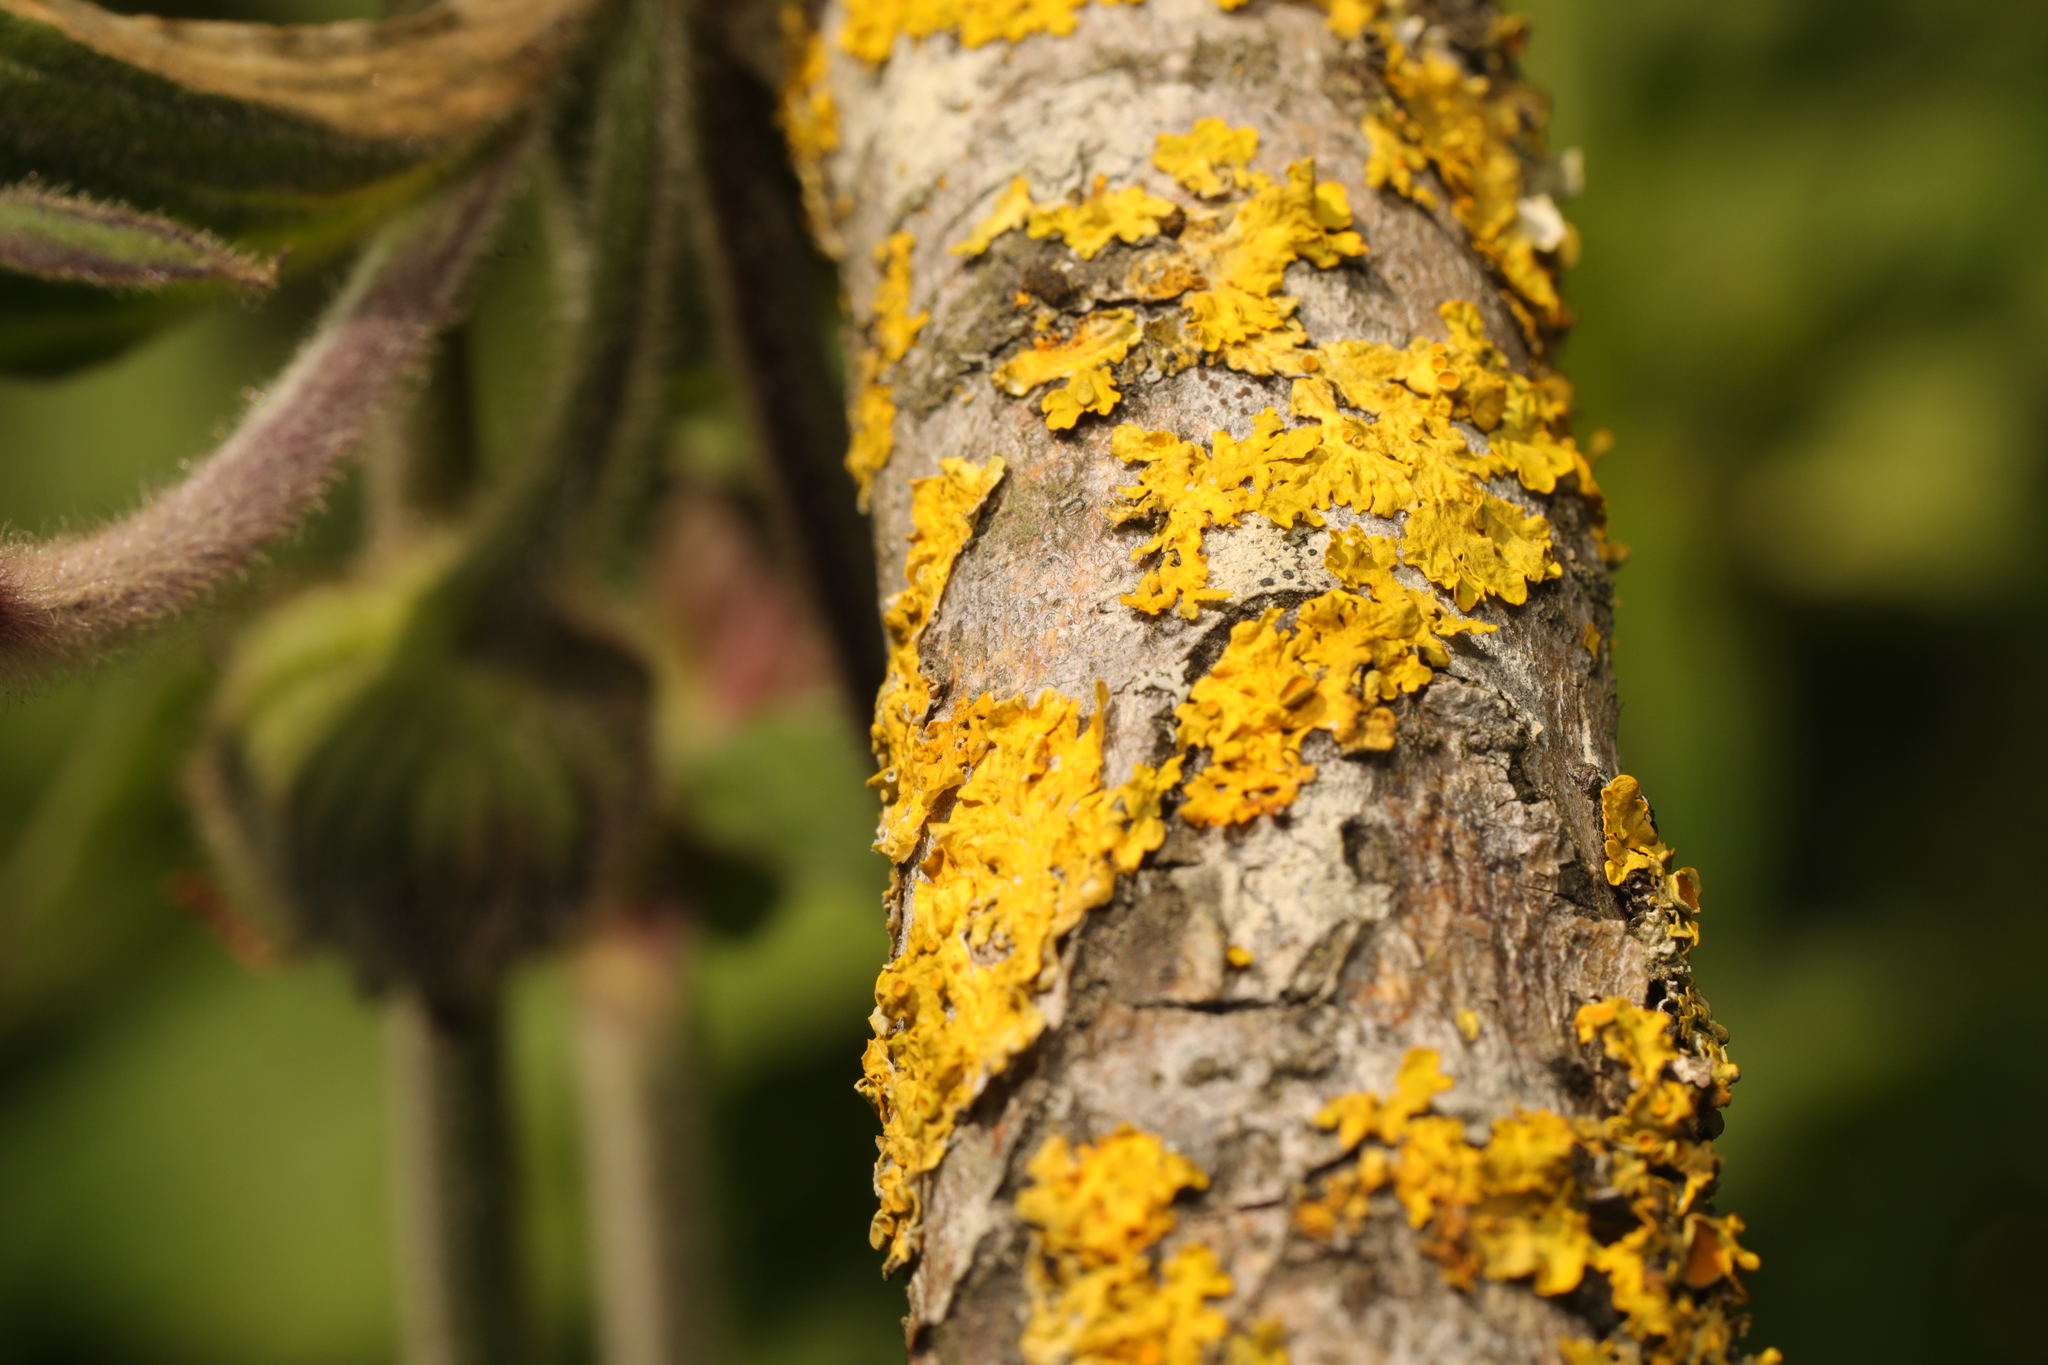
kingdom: Fungi
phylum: Ascomycota
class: Lecanoromycetes
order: Teloschistales
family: Teloschistaceae
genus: Xanthoria
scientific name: Xanthoria parietina
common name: Common orange lichen
